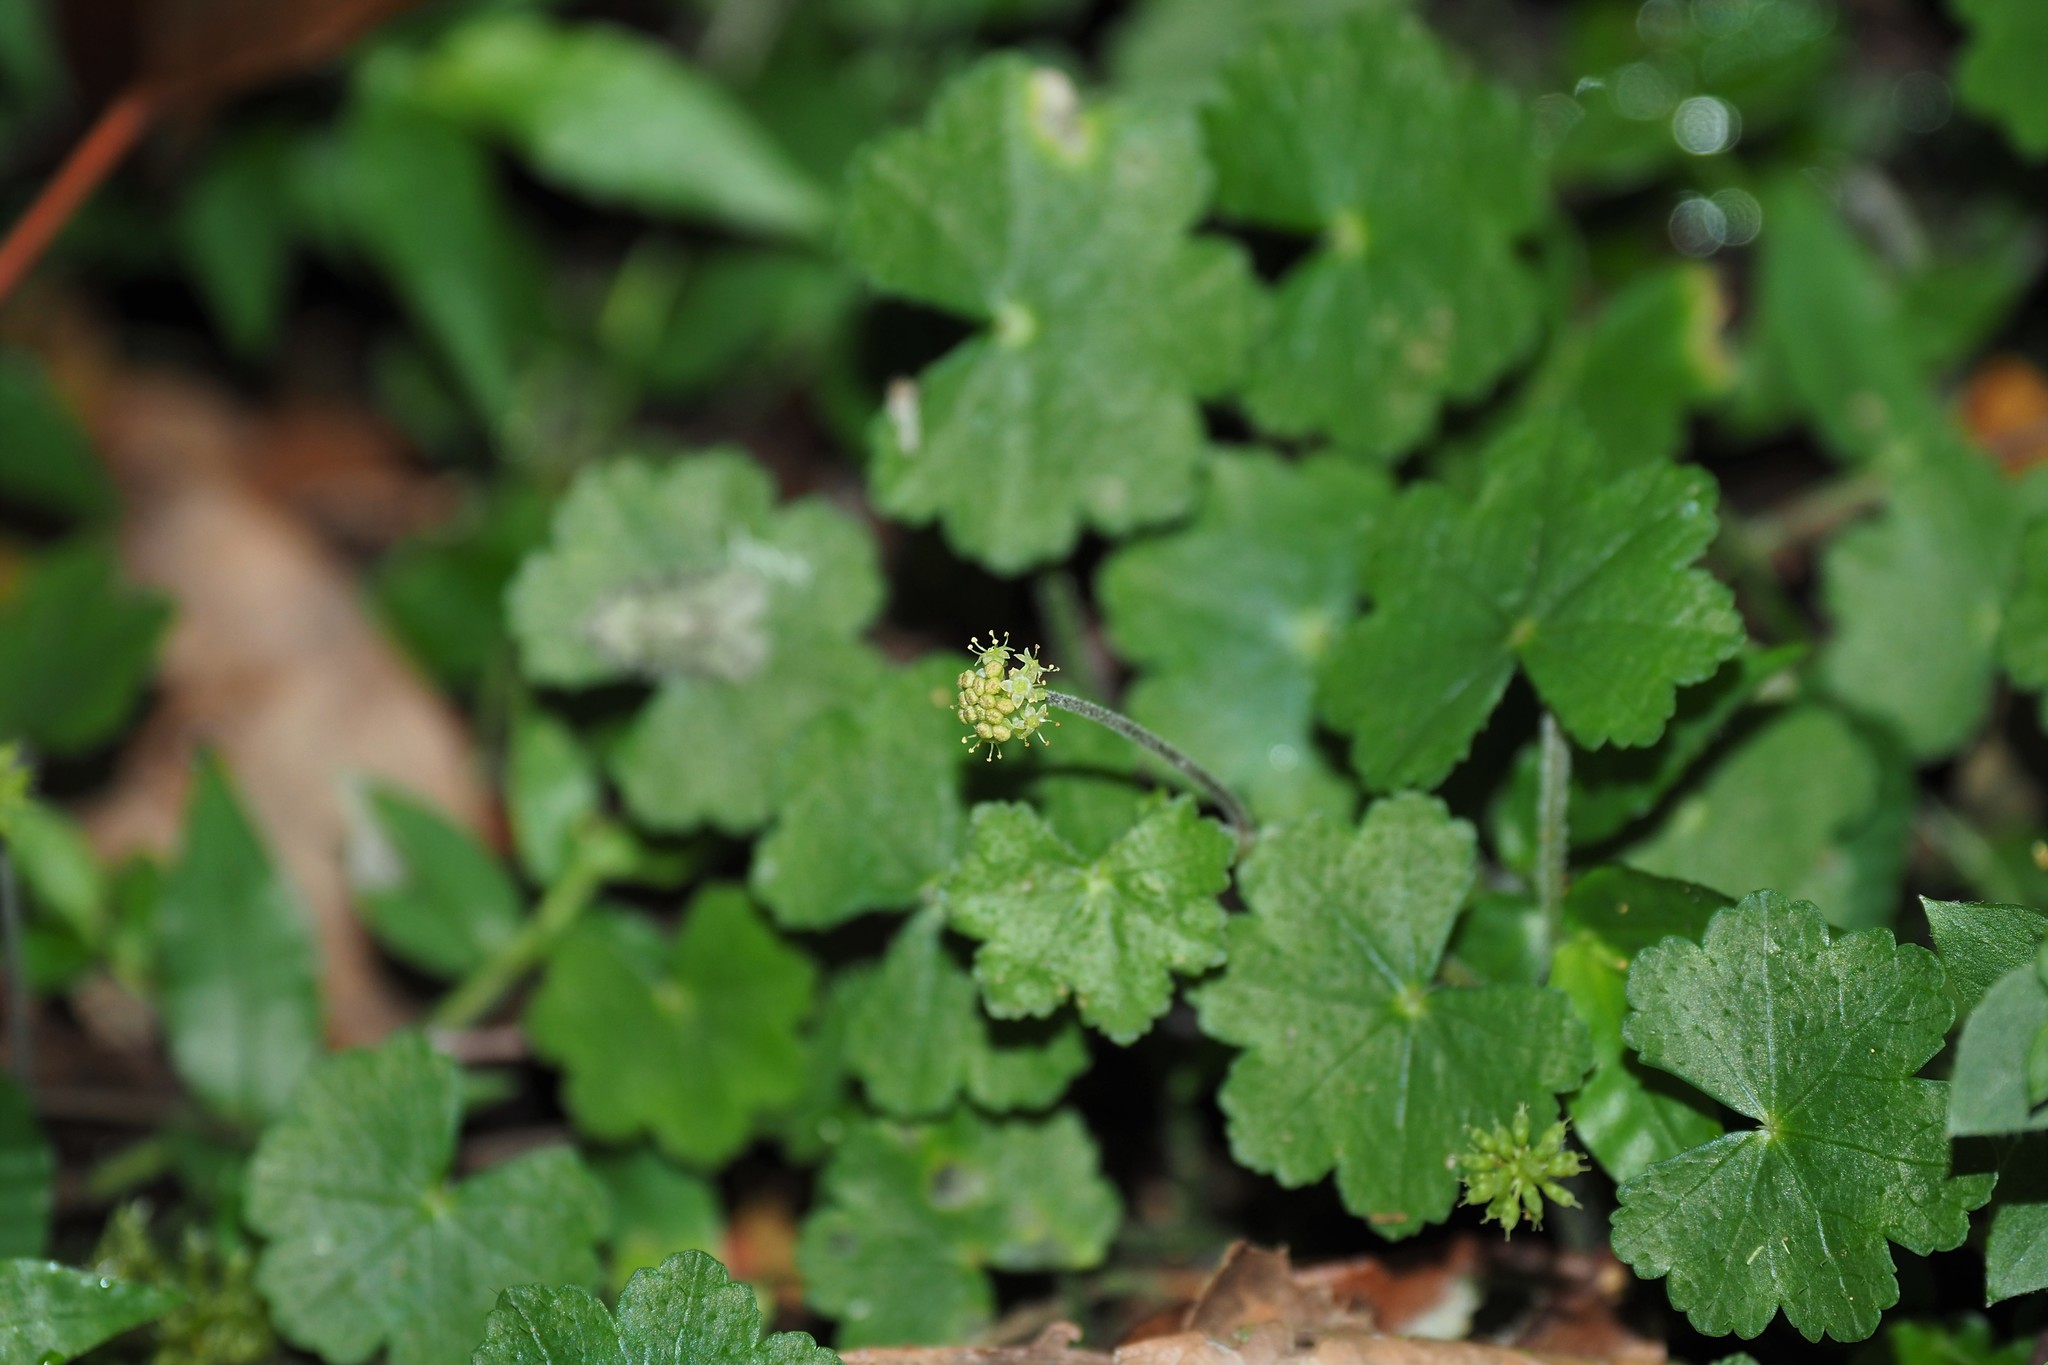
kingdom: Plantae
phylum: Tracheophyta
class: Magnoliopsida
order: Apiales
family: Araliaceae
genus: Hydrocotyle
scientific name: Hydrocotyle nepalensis
